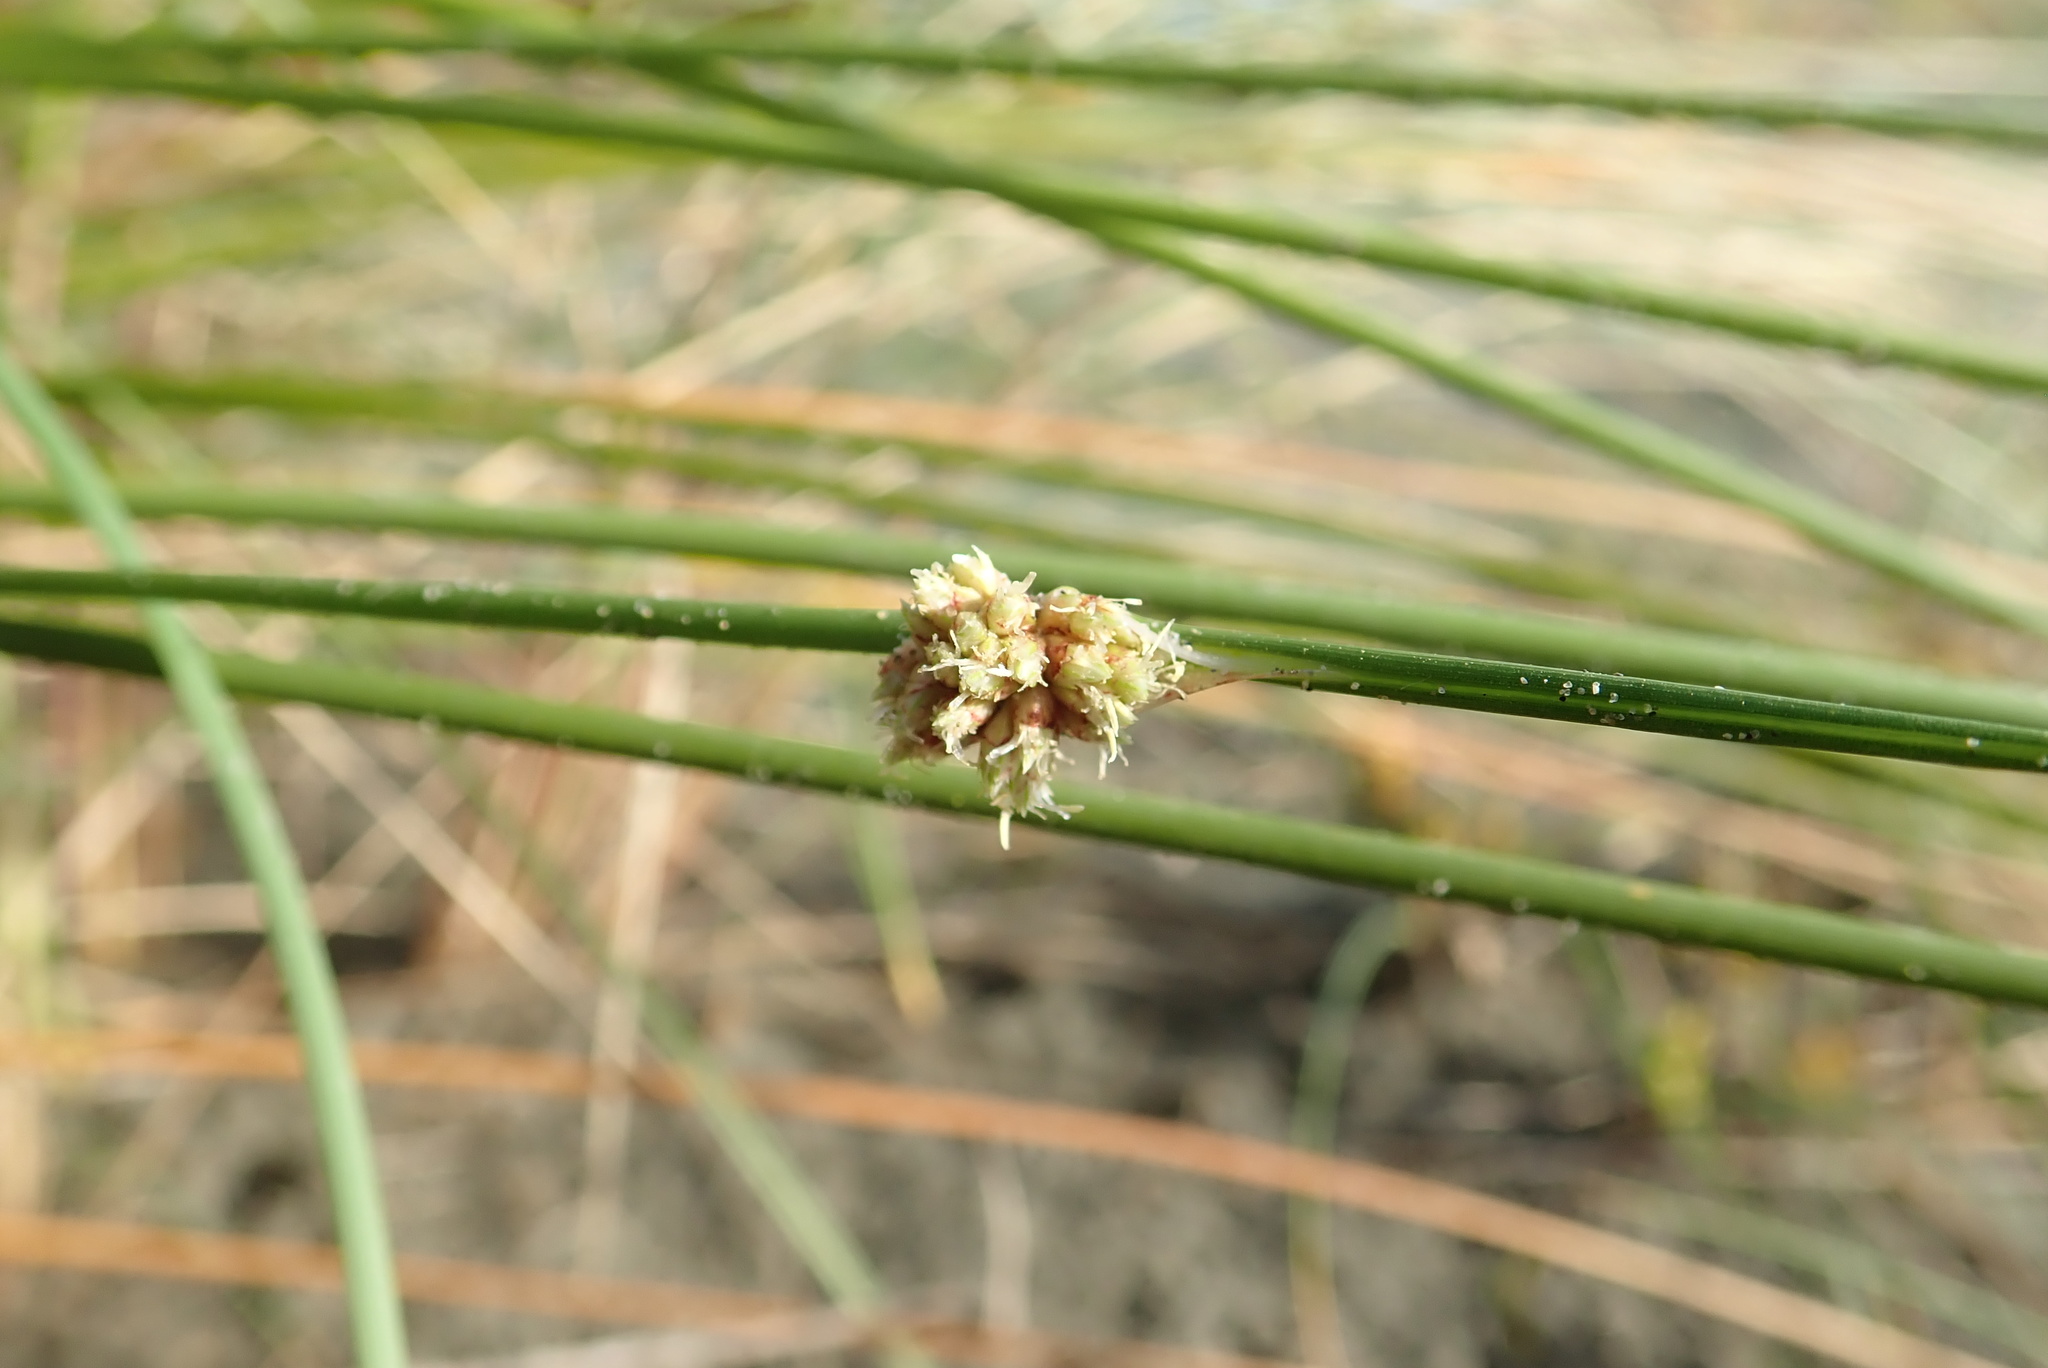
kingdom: Plantae
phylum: Tracheophyta
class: Liliopsida
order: Poales
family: Cyperaceae
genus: Ficinia
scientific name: Ficinia nodosa
